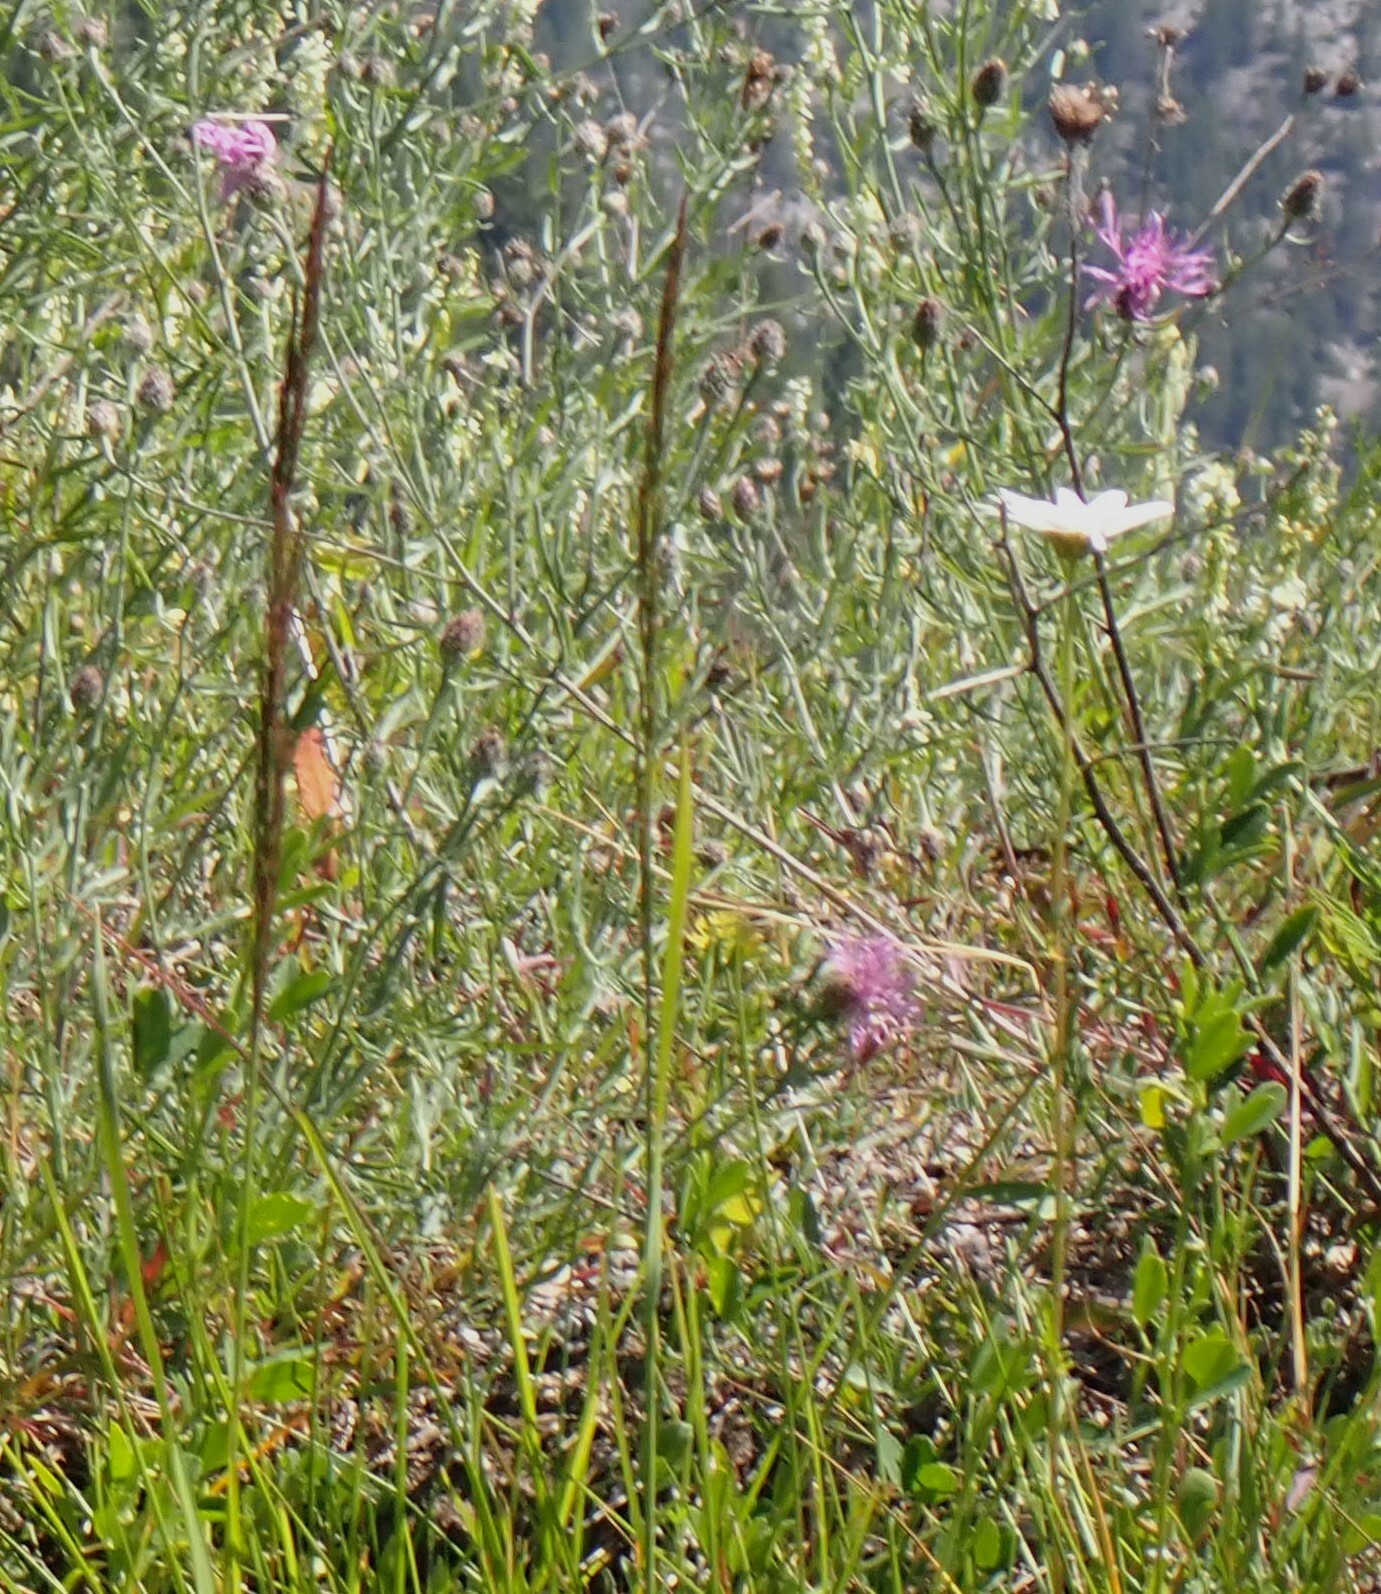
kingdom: Plantae
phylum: Tracheophyta
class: Magnoliopsida
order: Asterales
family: Asteraceae
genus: Centaurea
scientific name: Centaurea stoebe
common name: Spotted knapweed
